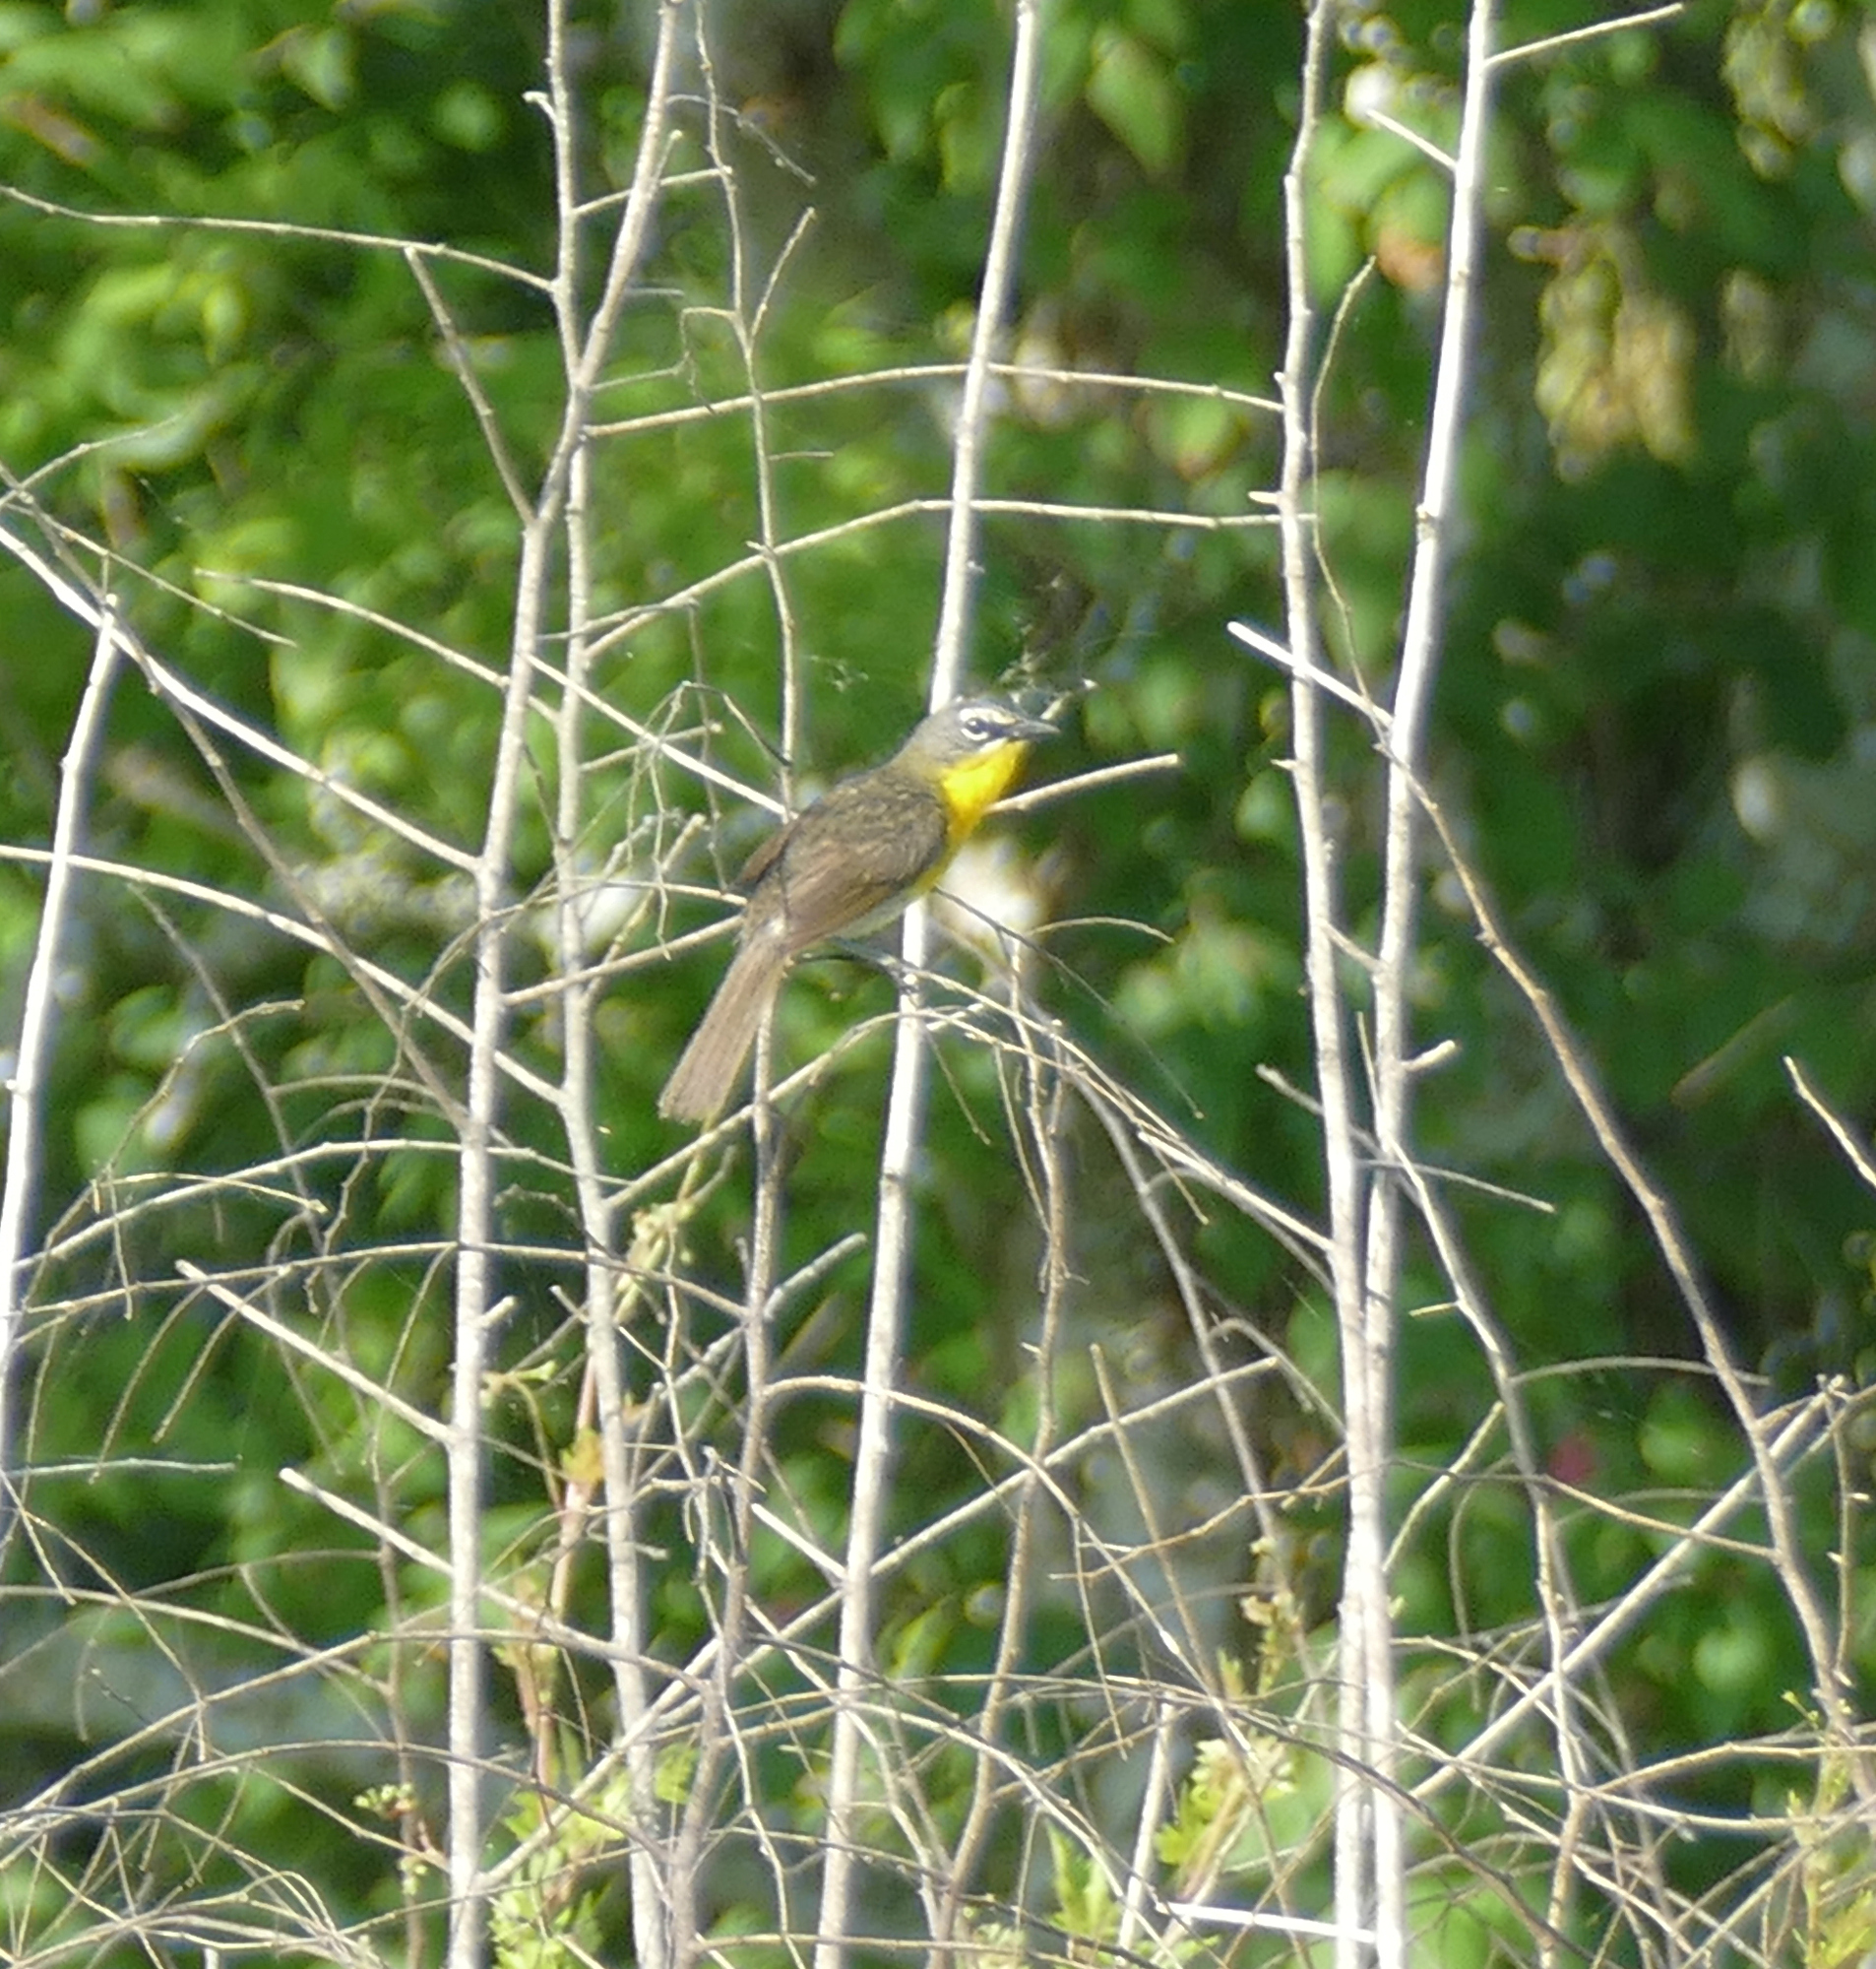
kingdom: Animalia
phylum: Chordata
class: Aves
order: Passeriformes
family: Parulidae
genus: Icteria
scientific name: Icteria virens
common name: Yellow-breasted chat
